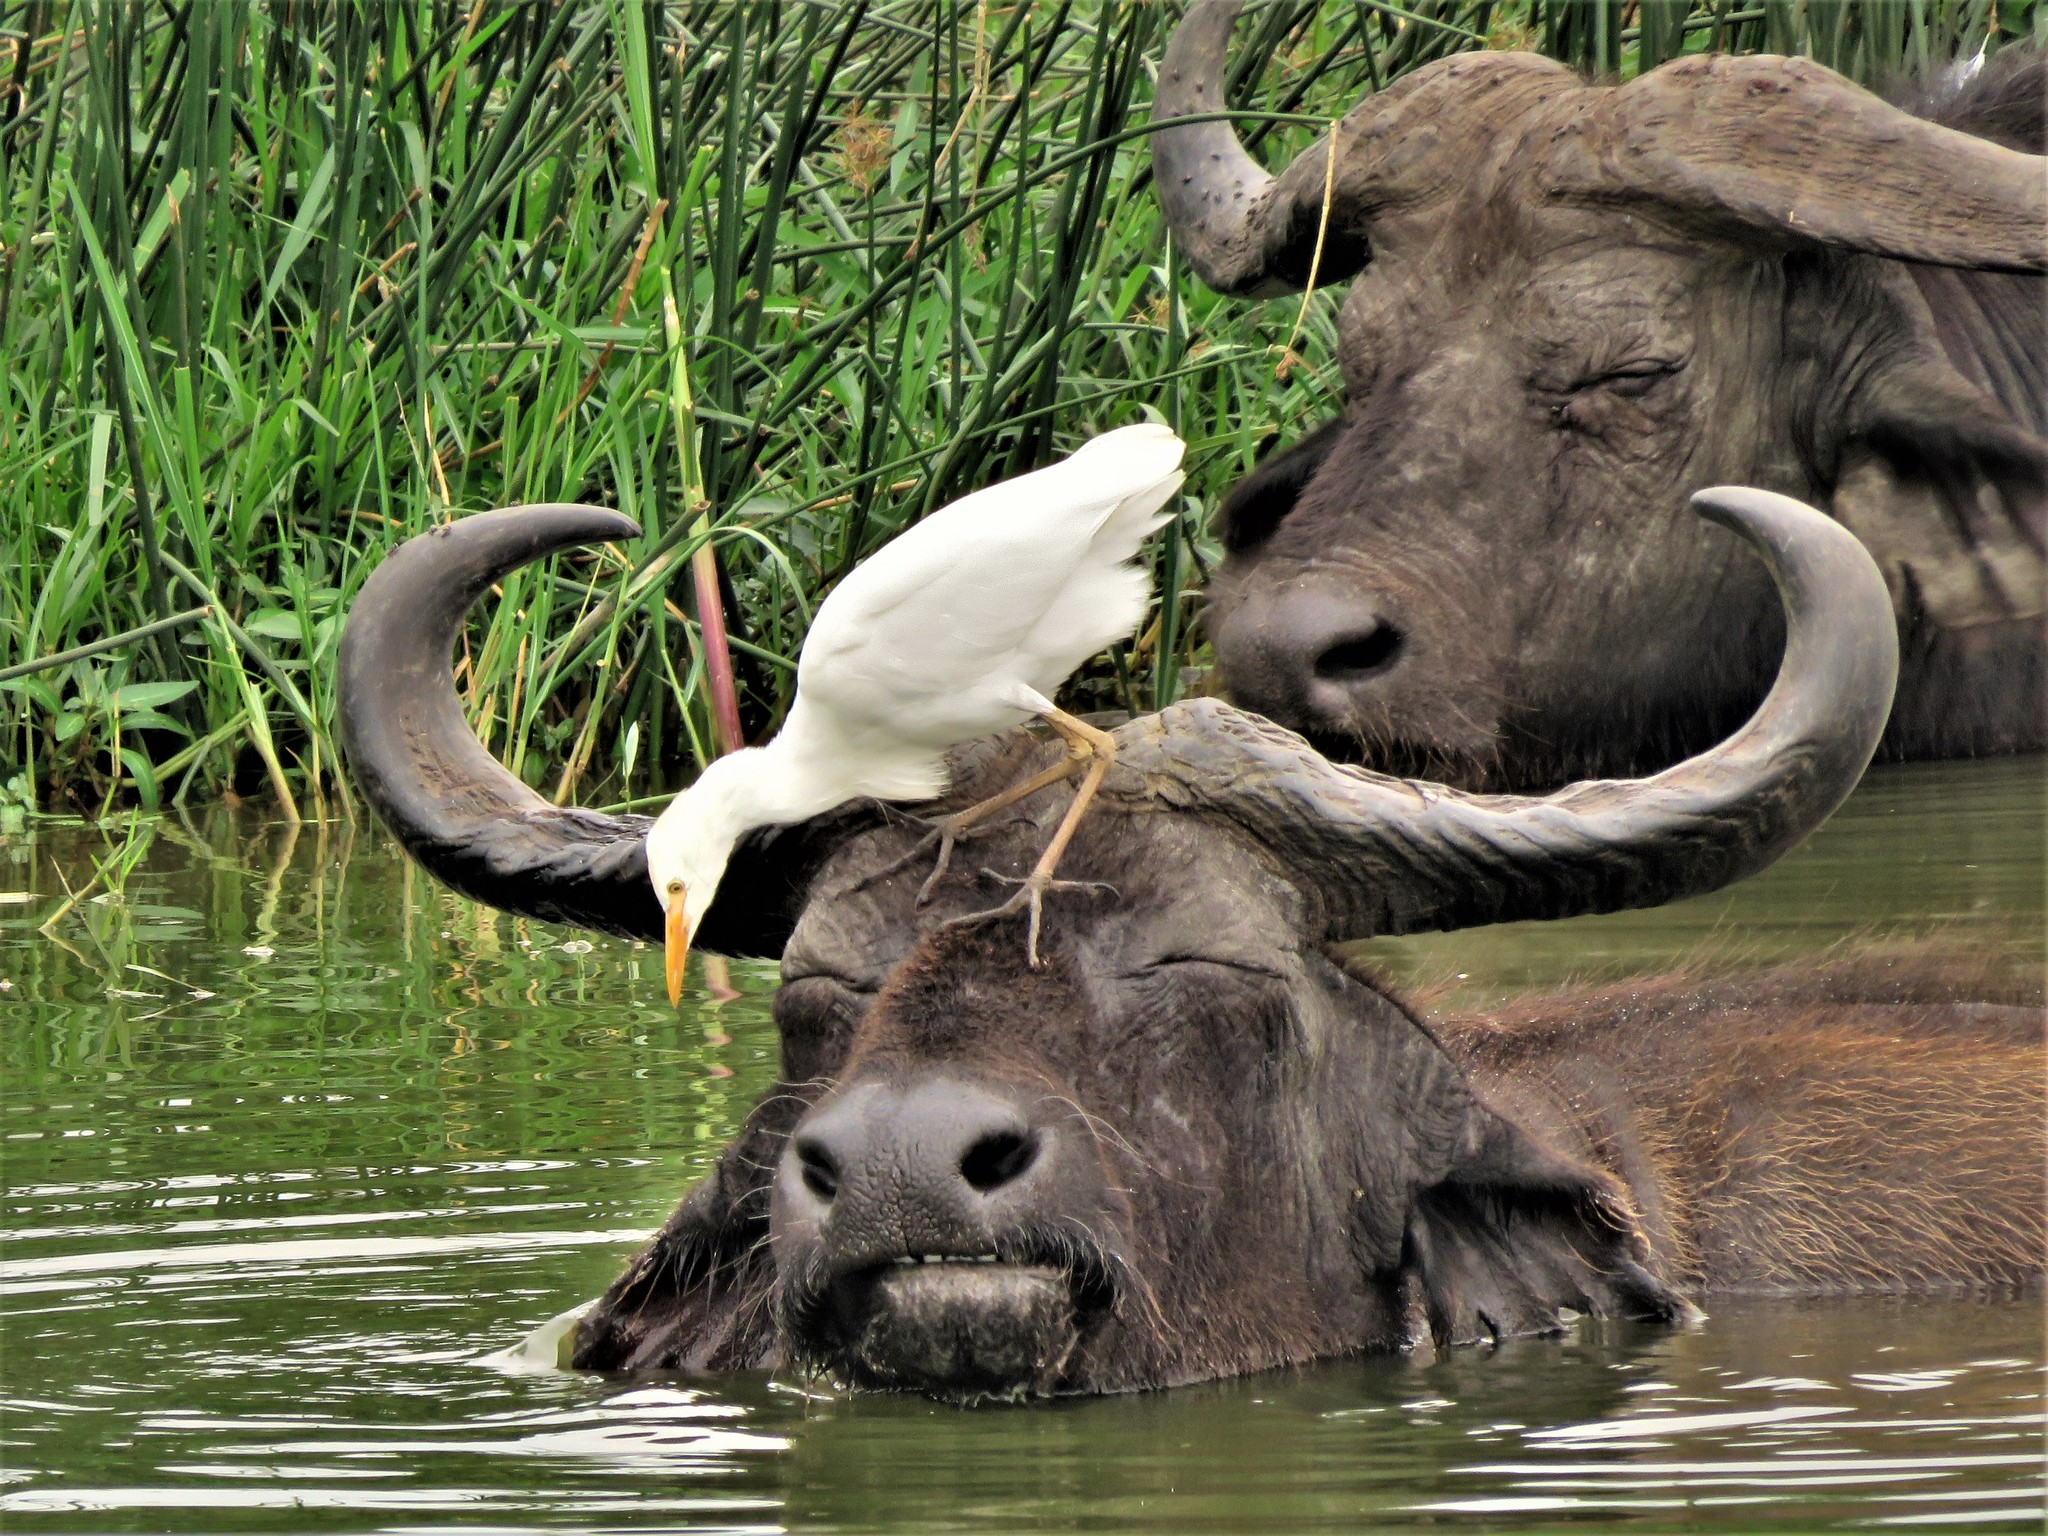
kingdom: Animalia
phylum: Chordata
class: Aves
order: Pelecaniformes
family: Ardeidae
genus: Bubulcus
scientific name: Bubulcus ibis
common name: Cattle egret
